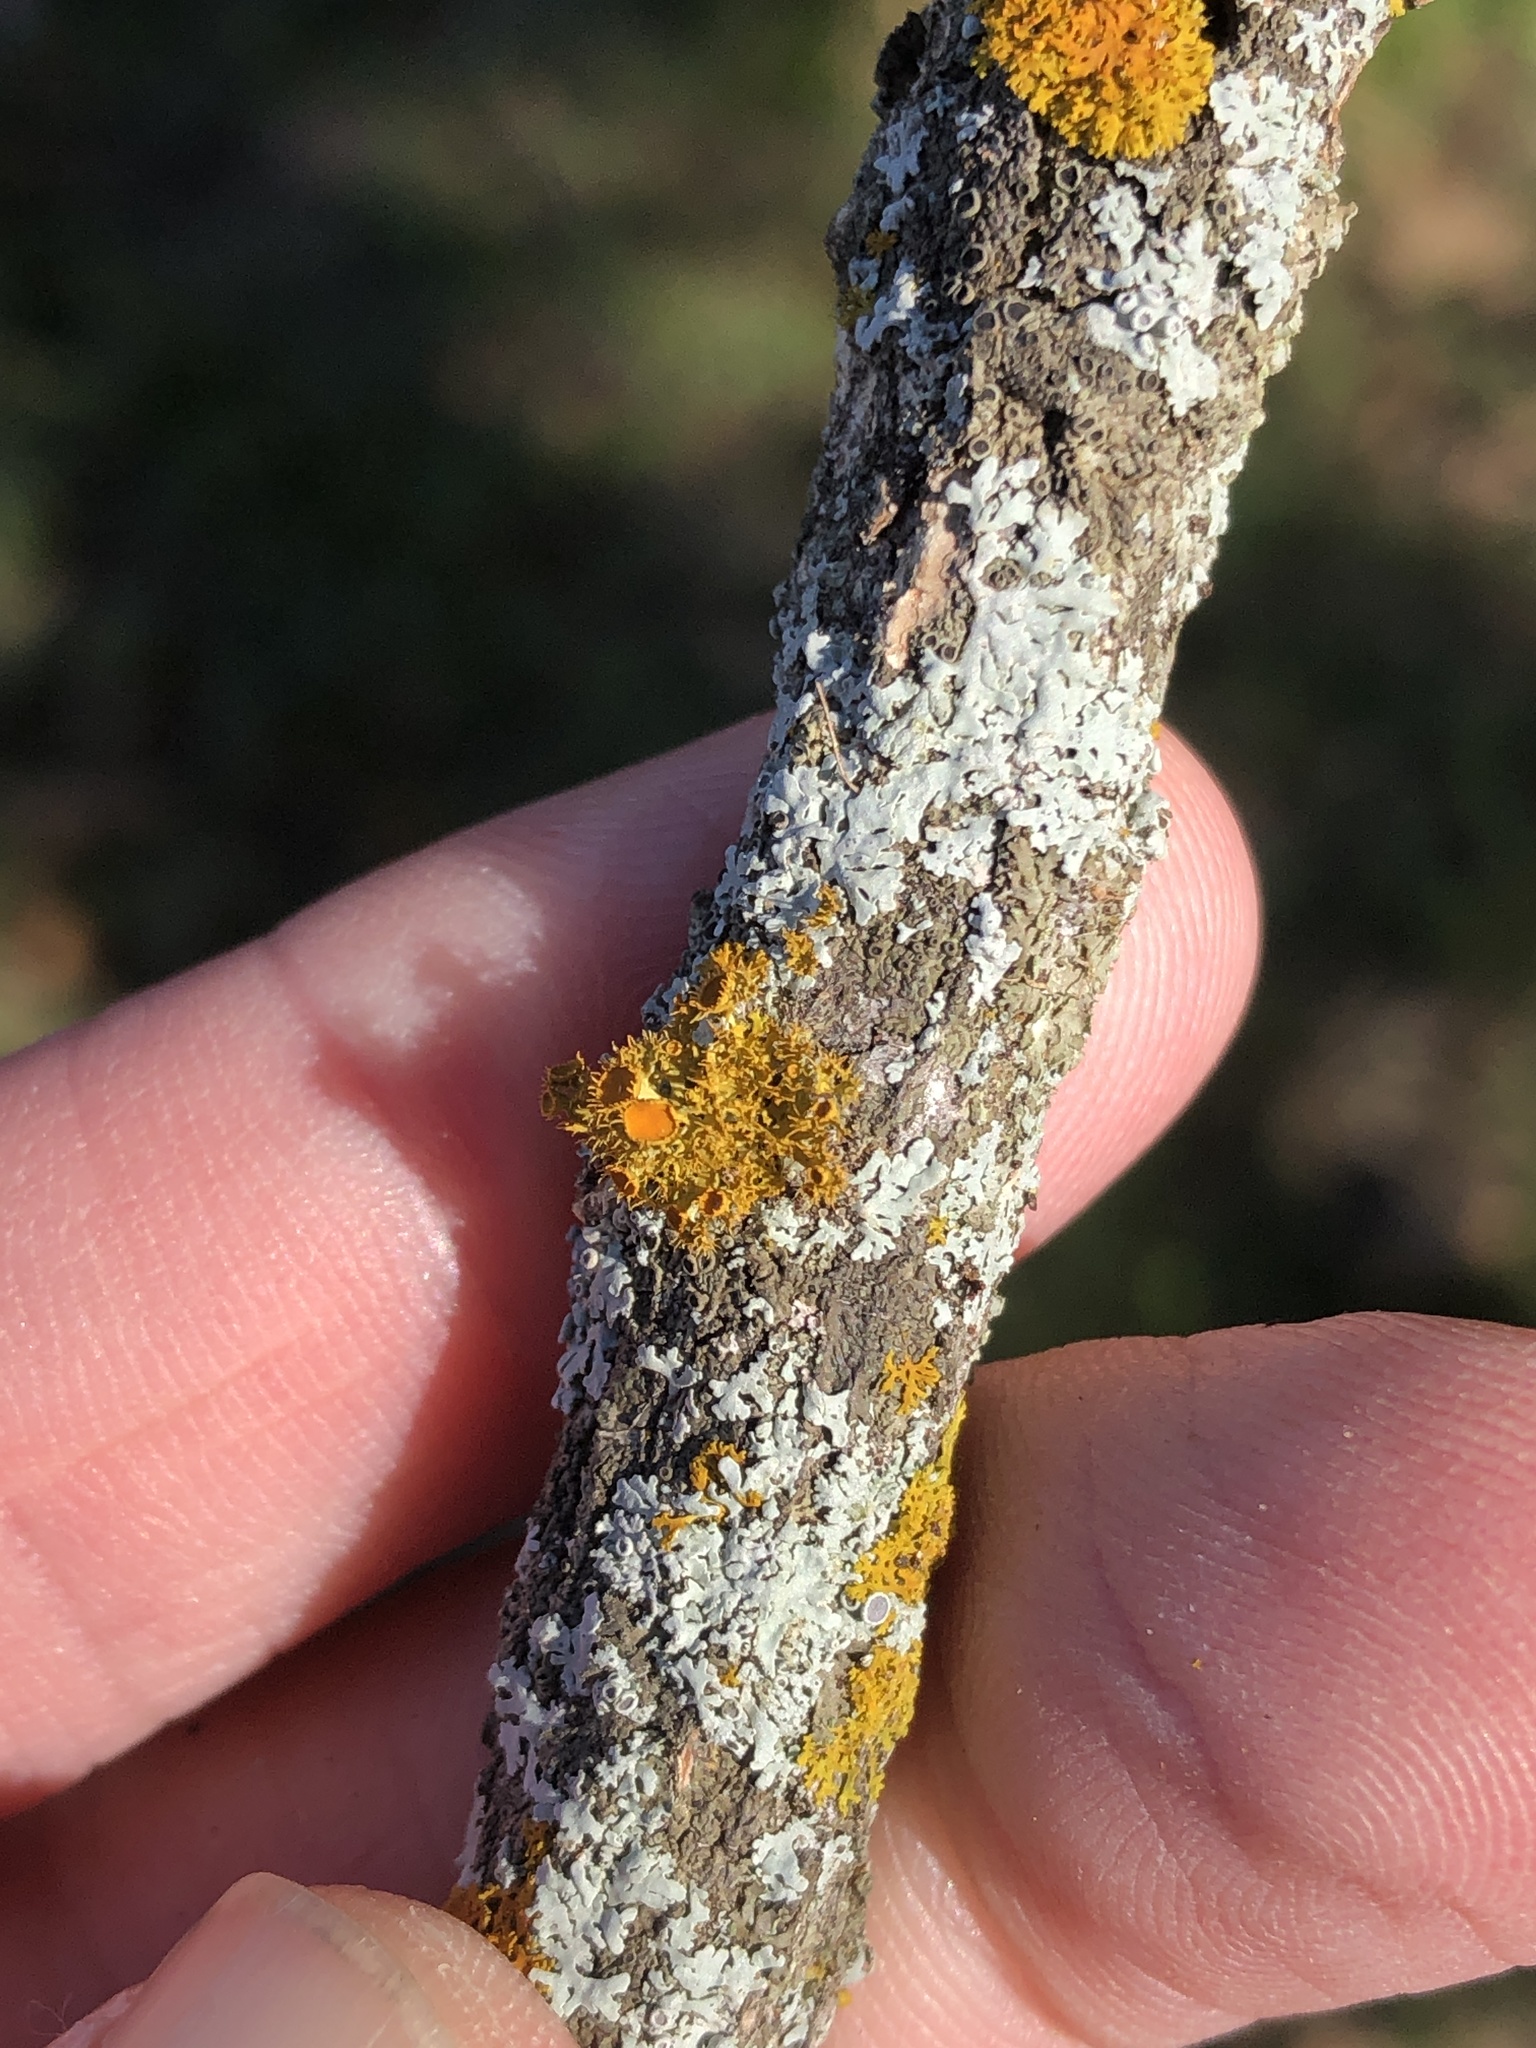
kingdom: Fungi
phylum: Ascomycota
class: Lecanoromycetes
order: Teloschistales
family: Teloschistaceae
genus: Niorma
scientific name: Niorma chrysophthalma
